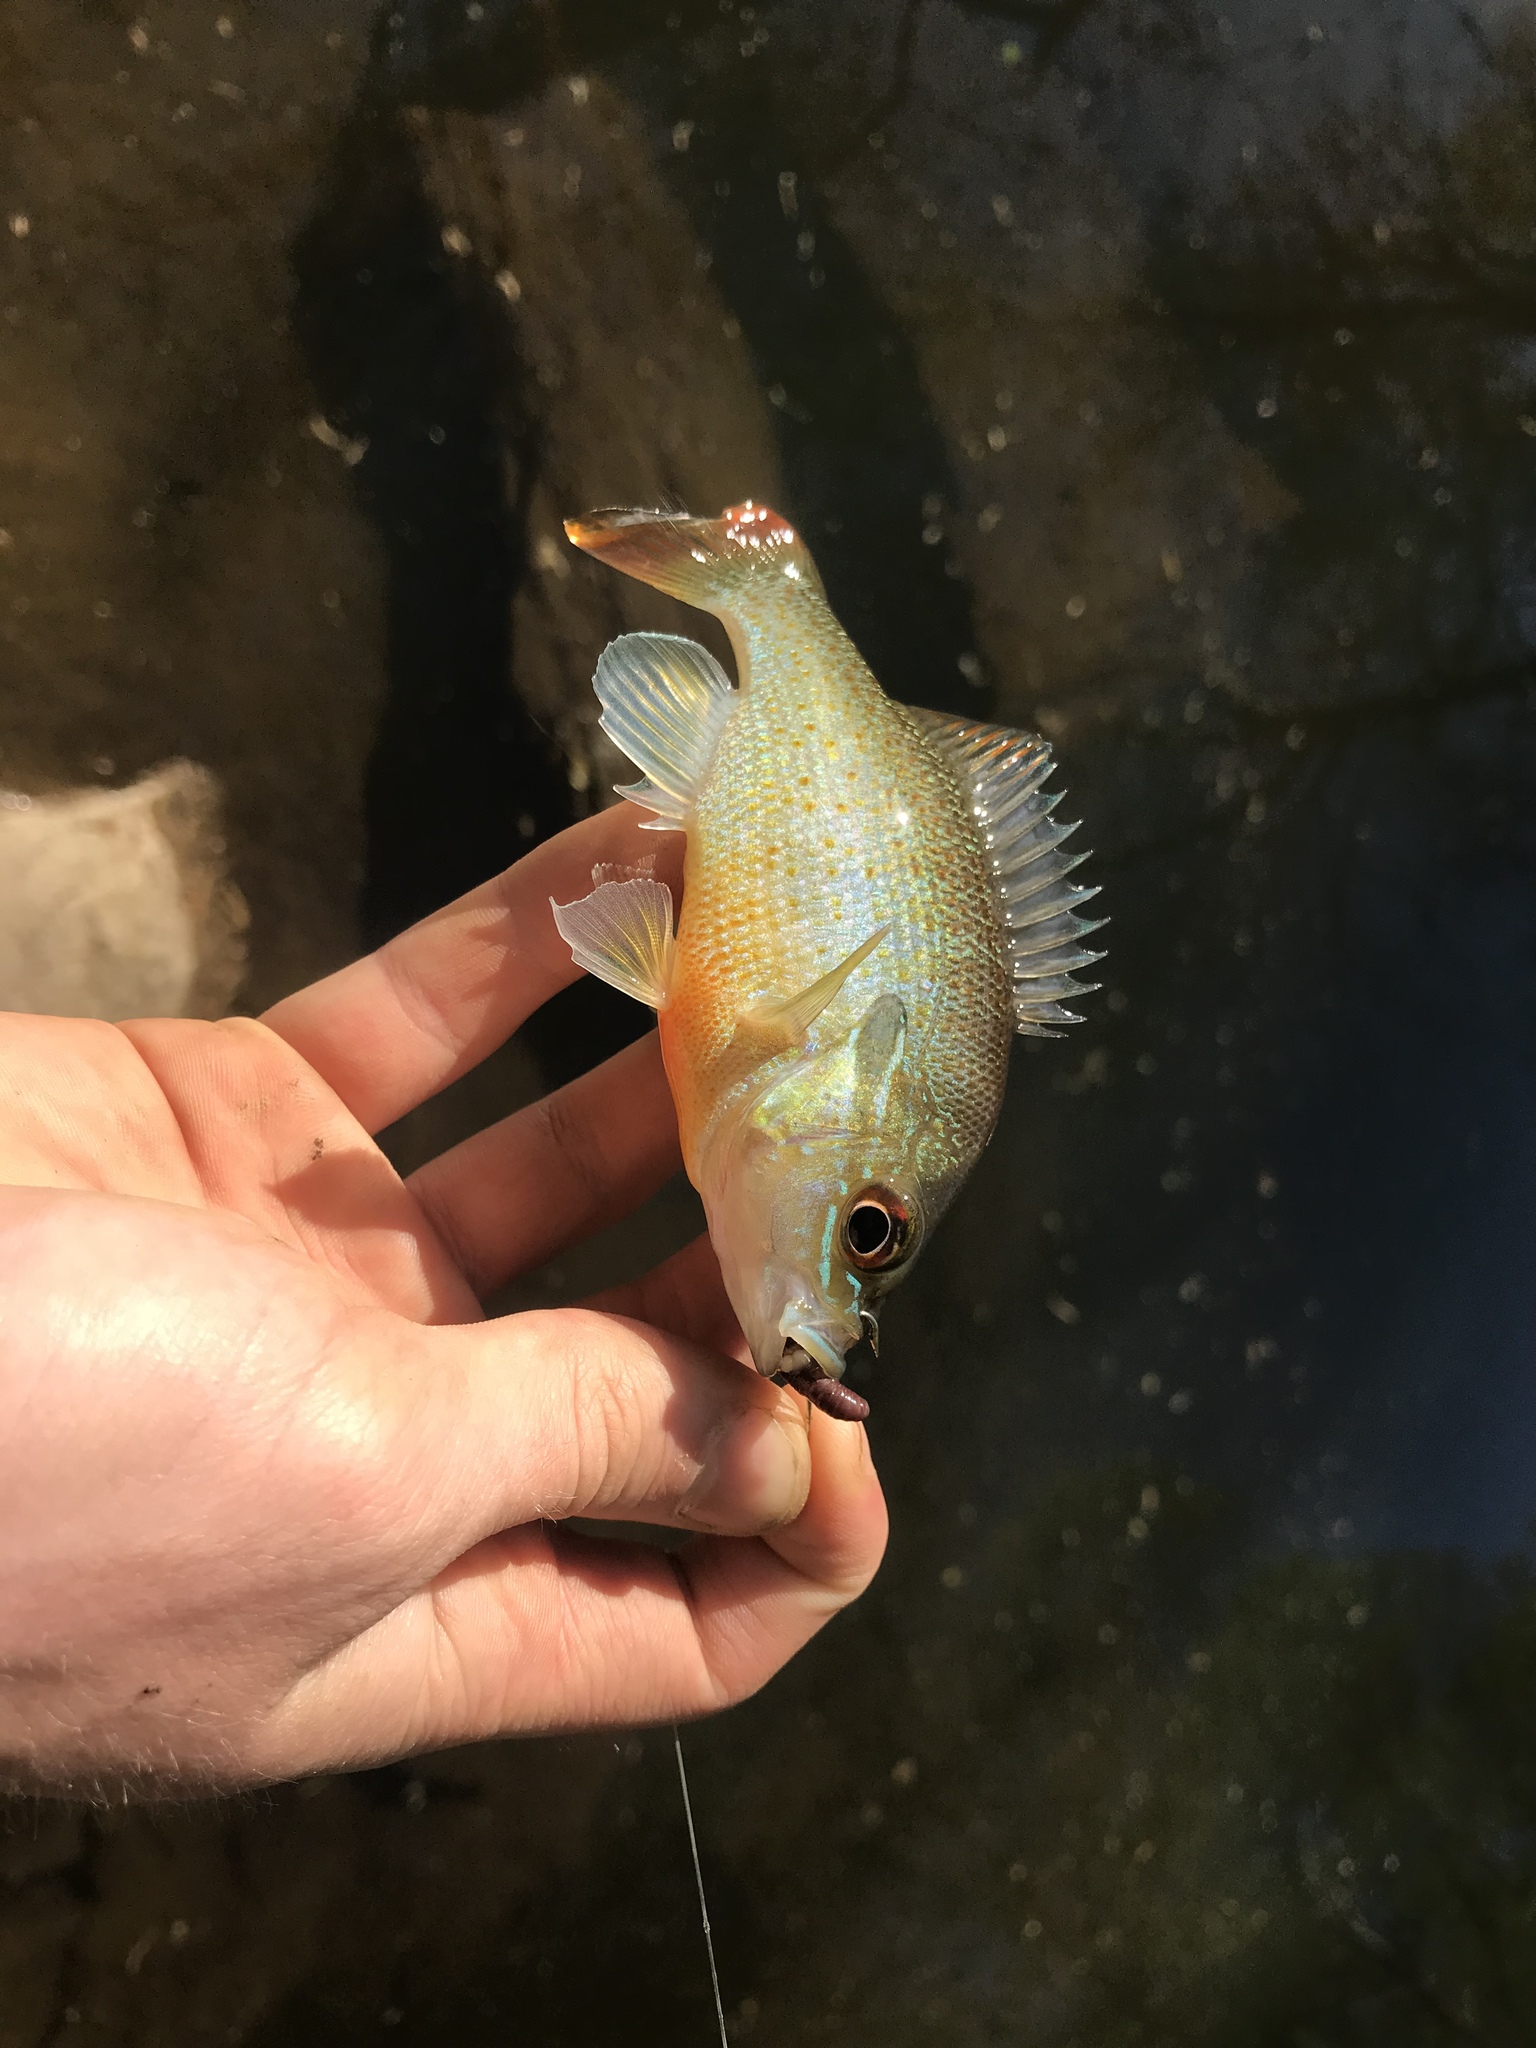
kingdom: Animalia
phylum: Chordata
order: Perciformes
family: Centrarchidae
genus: Lepomis
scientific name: Lepomis auritus
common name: Redbreast sunfish
